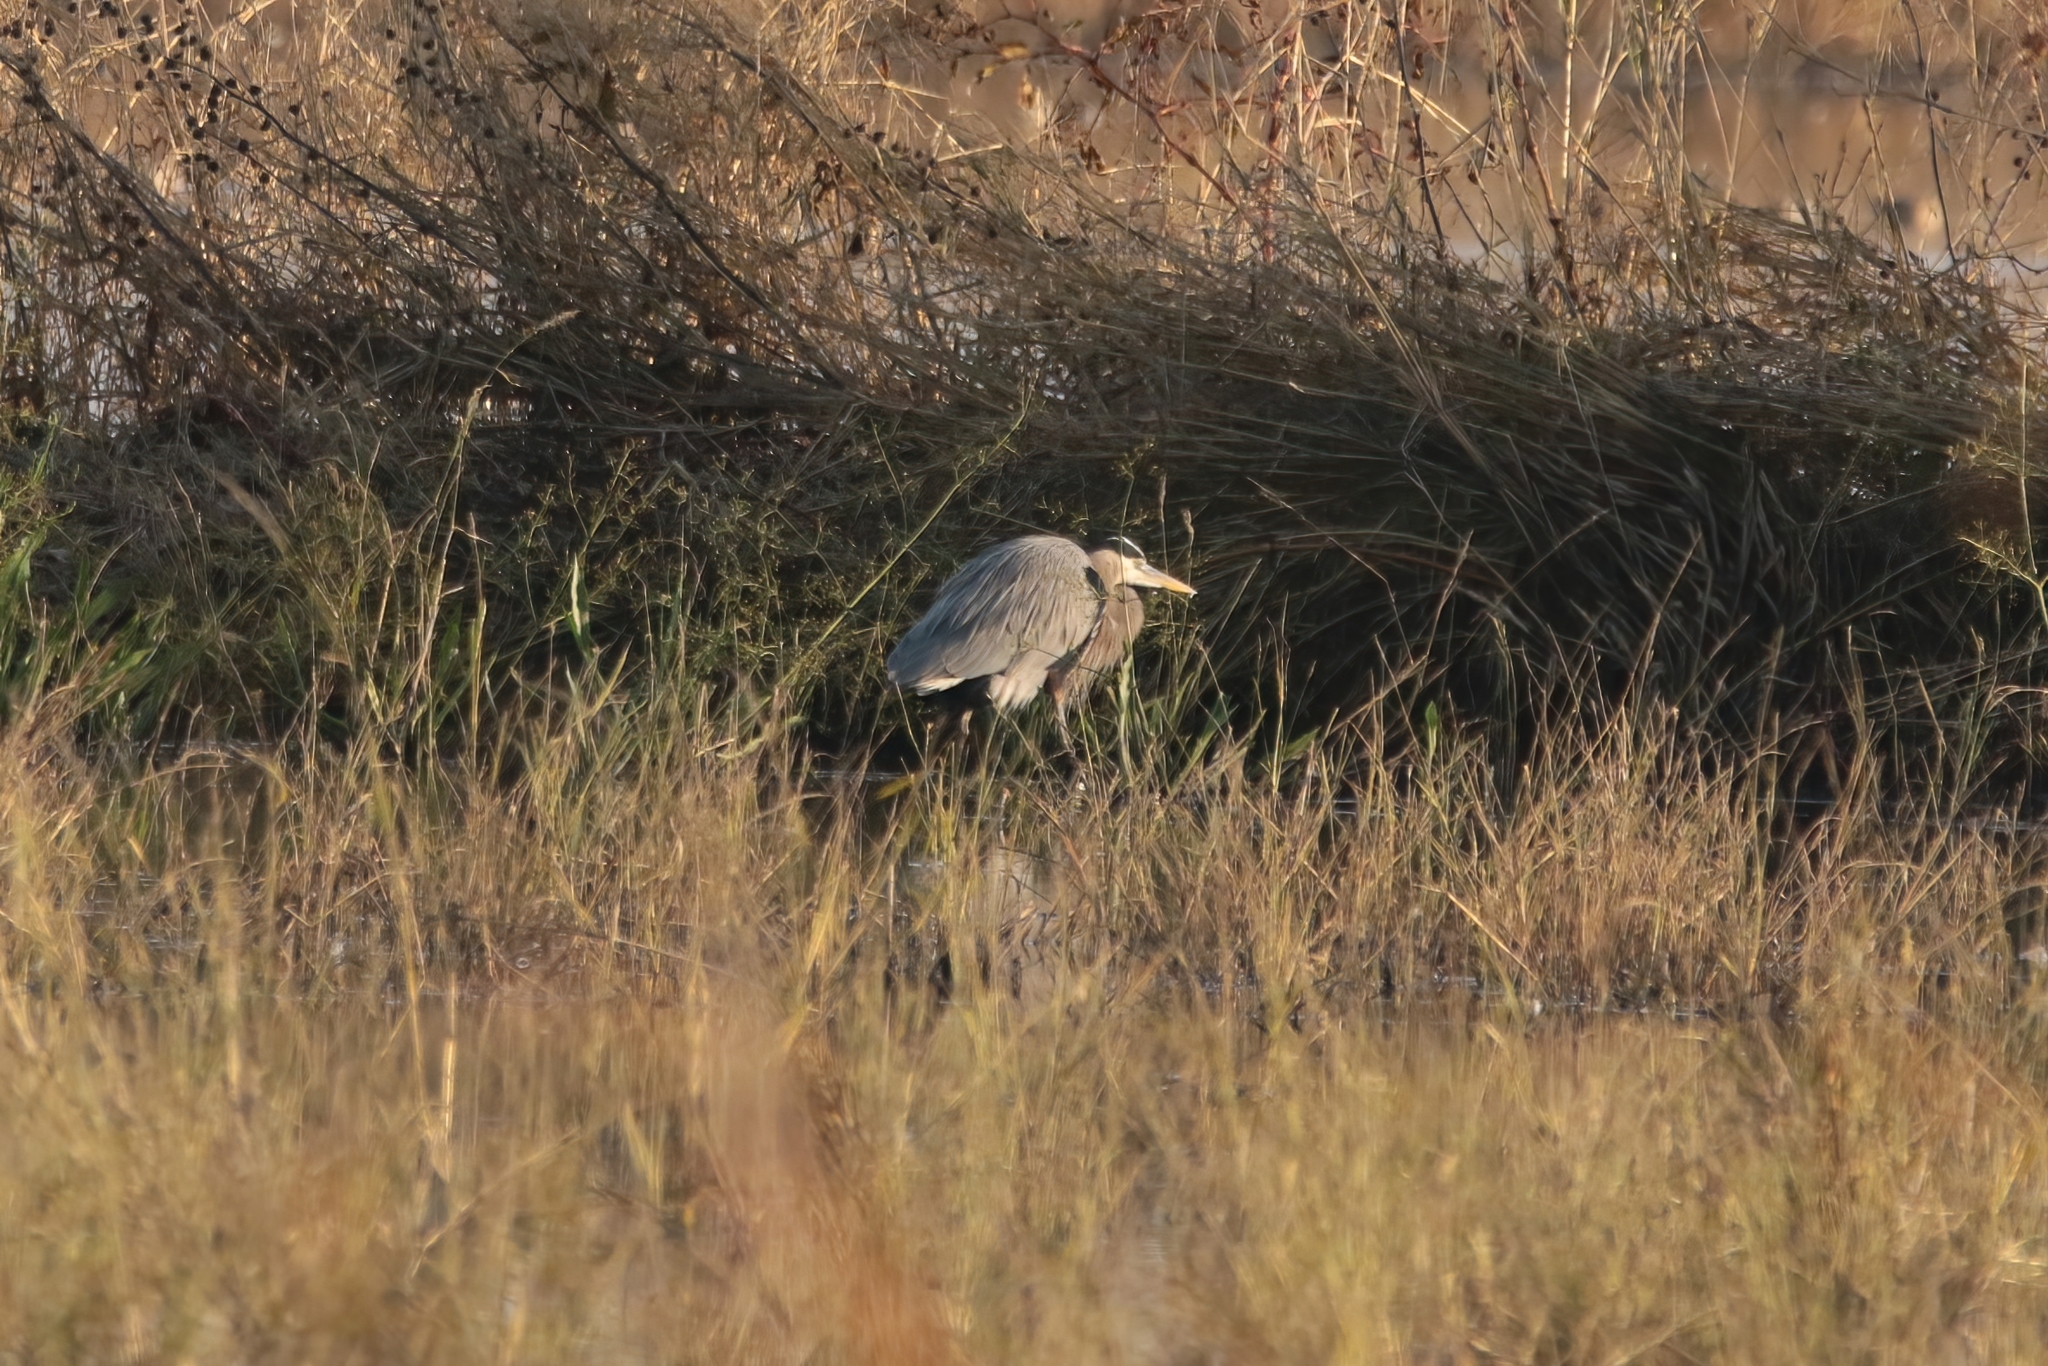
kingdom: Animalia
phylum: Chordata
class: Aves
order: Pelecaniformes
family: Ardeidae
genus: Ardea
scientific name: Ardea herodias
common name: Great blue heron
